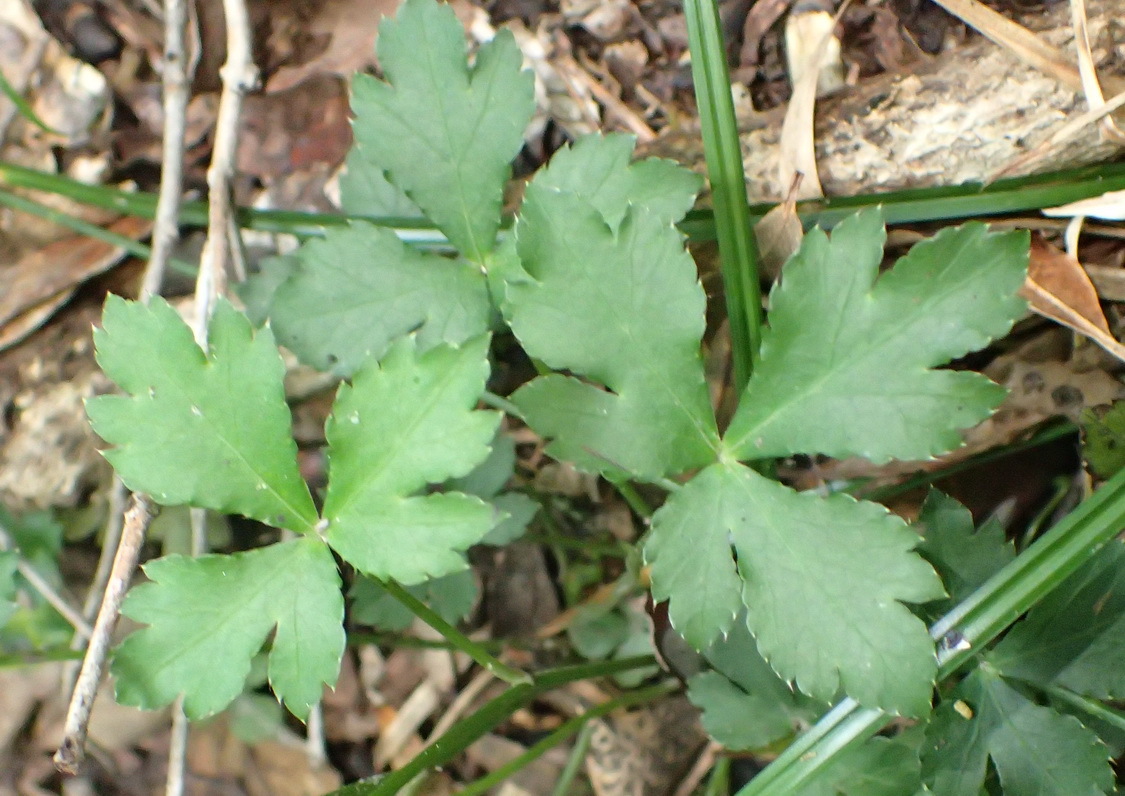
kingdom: Plantae
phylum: Tracheophyta
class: Magnoliopsida
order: Apiales
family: Apiaceae
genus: Sanicula
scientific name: Sanicula elata
